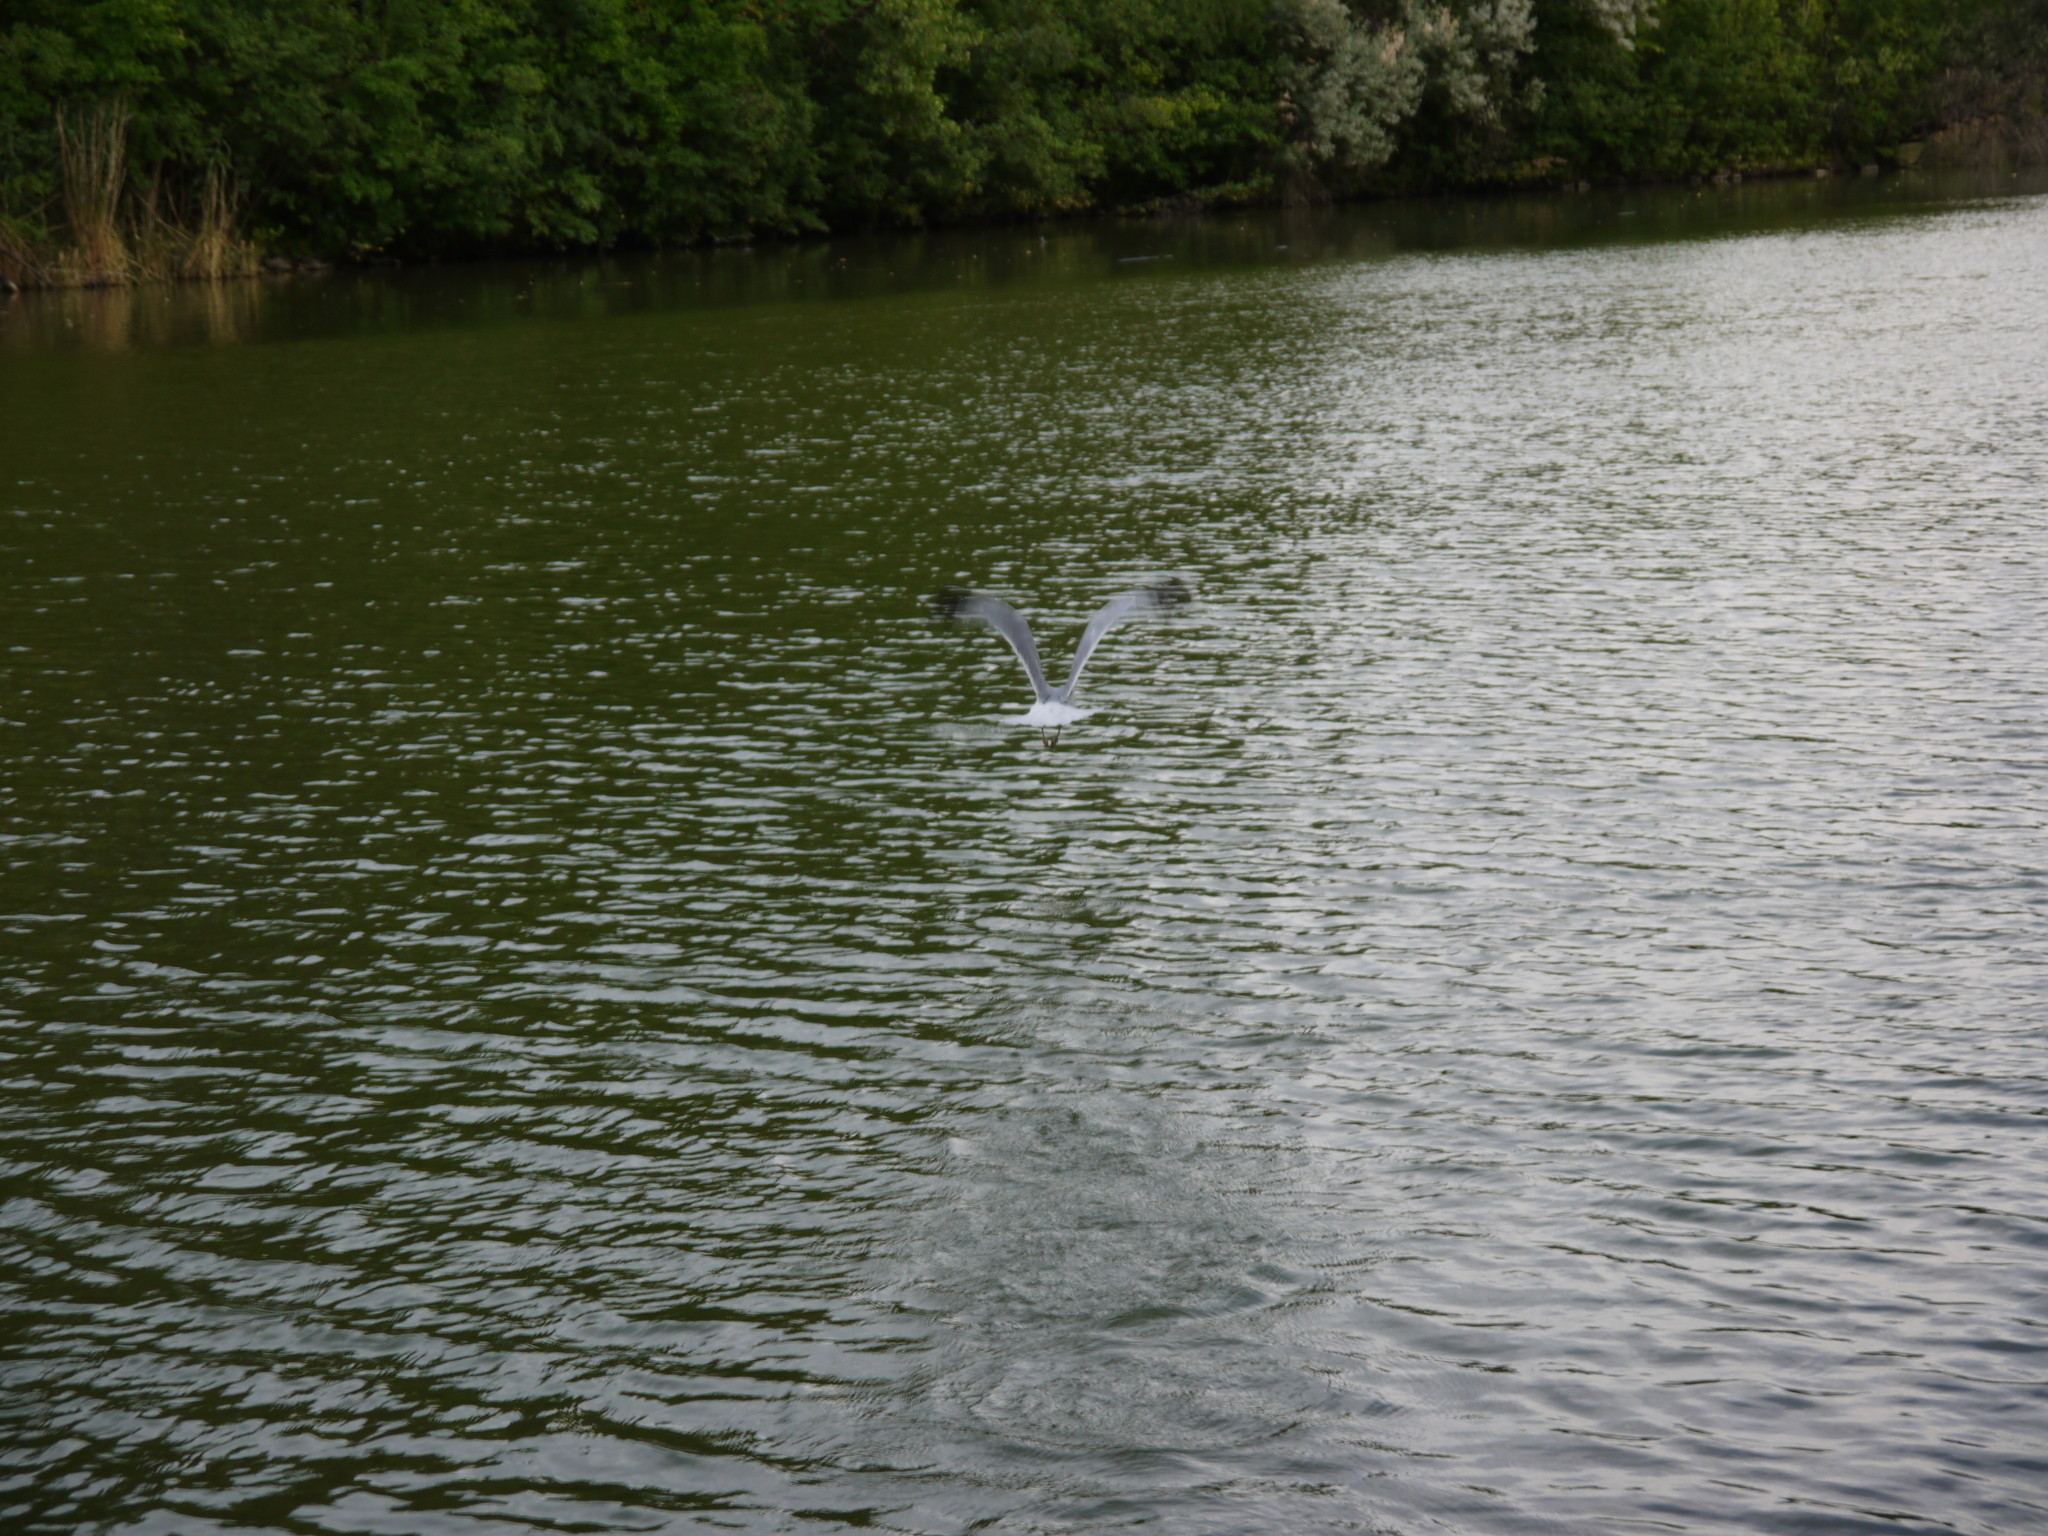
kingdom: Animalia
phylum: Chordata
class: Aves
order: Charadriiformes
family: Laridae
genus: Larus
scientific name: Larus delawarensis
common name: Ring-billed gull
